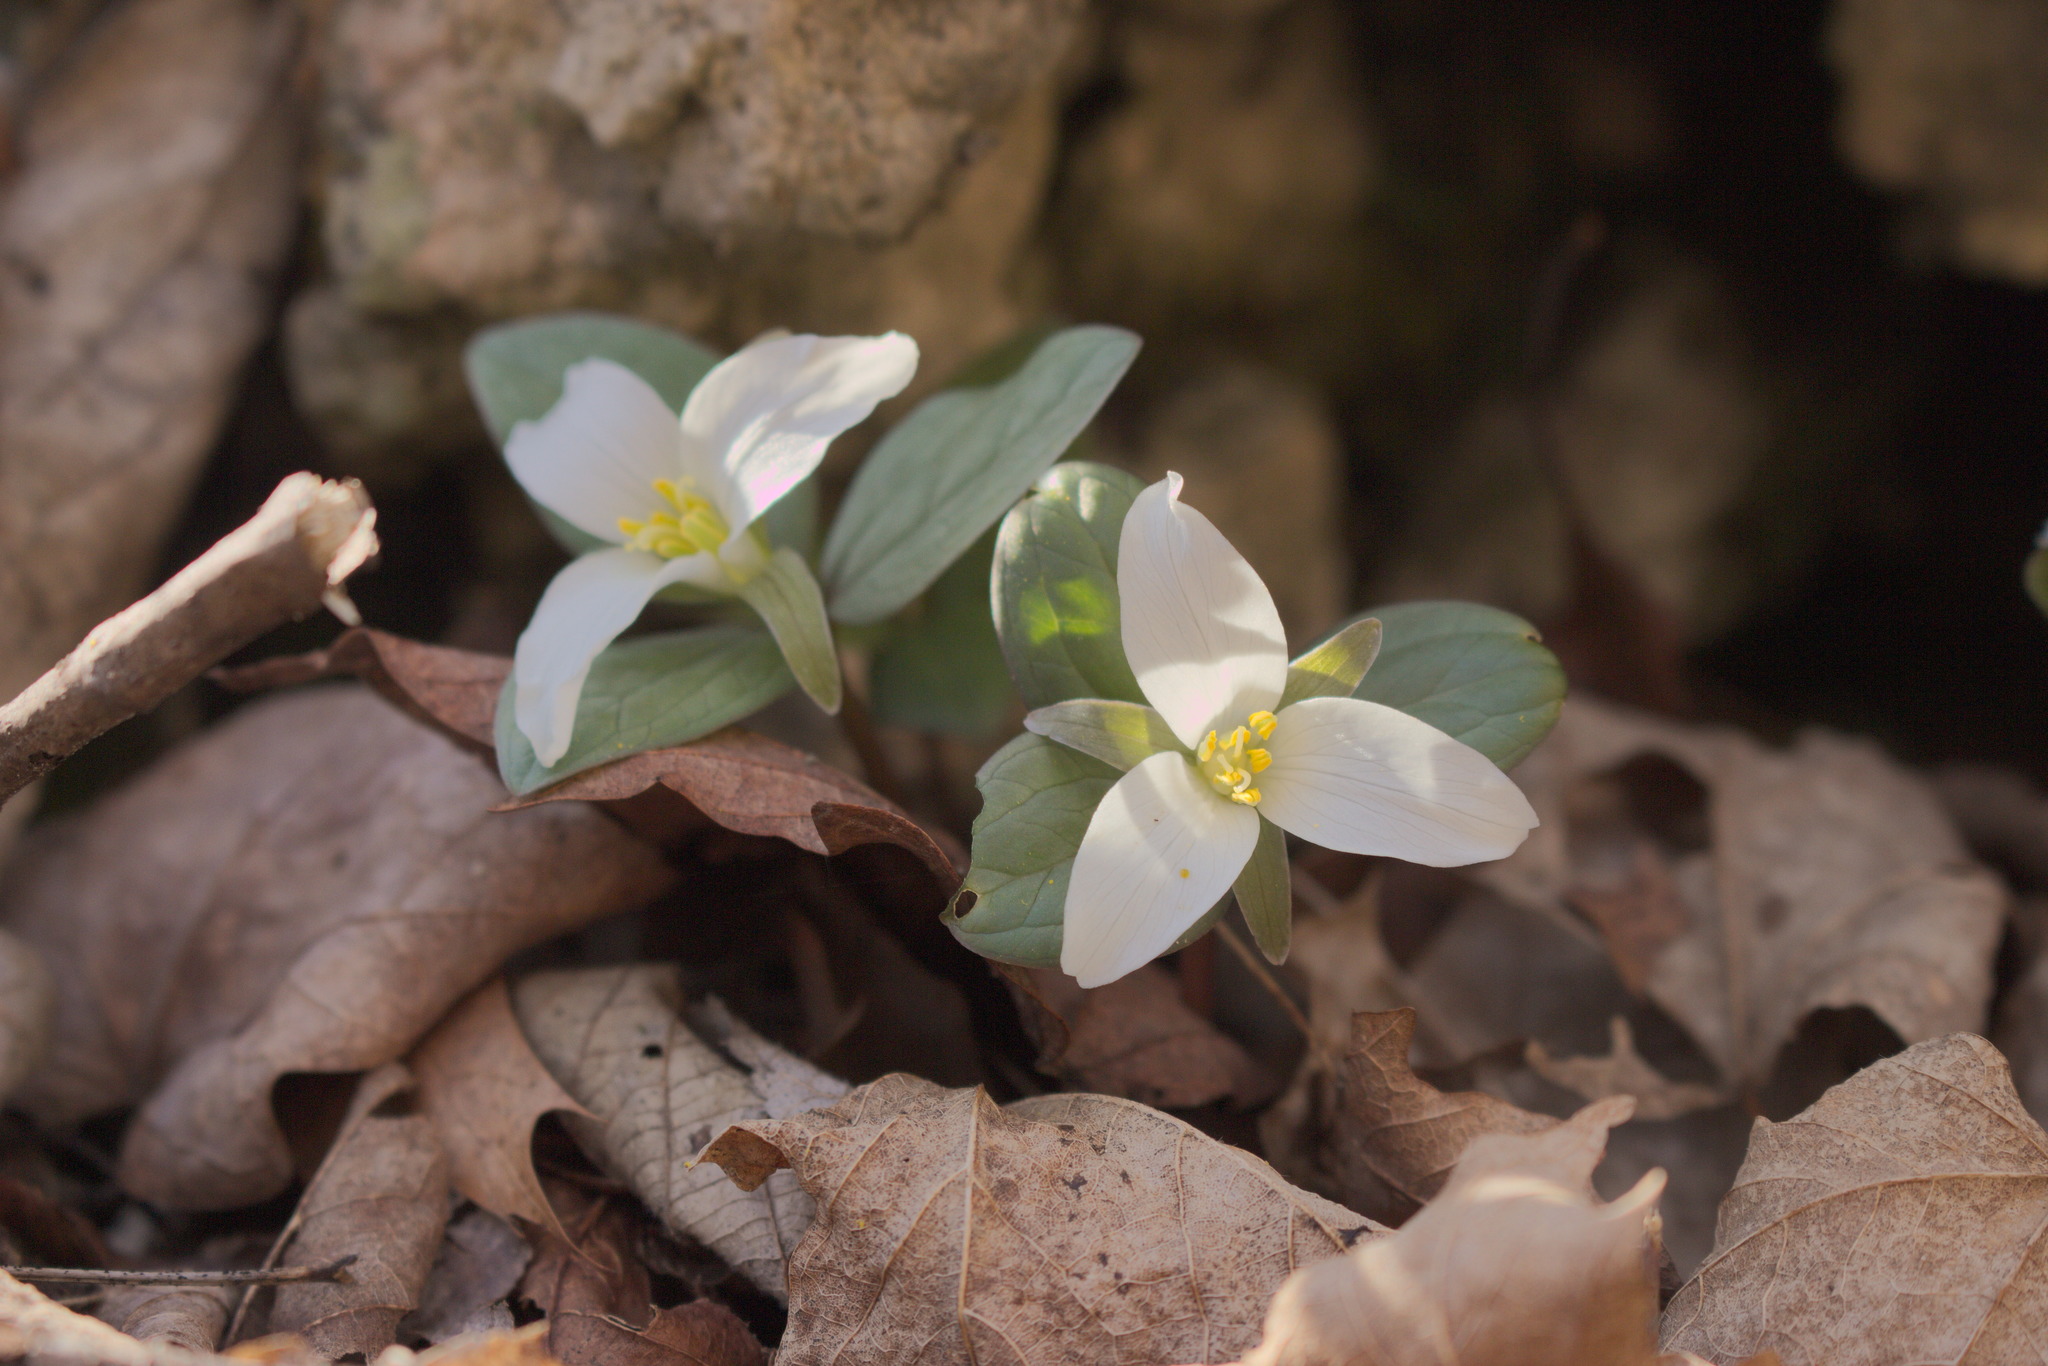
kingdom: Plantae
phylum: Tracheophyta
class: Liliopsida
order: Liliales
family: Melanthiaceae
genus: Trillium
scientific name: Trillium nivale
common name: Dwarf white trillium
